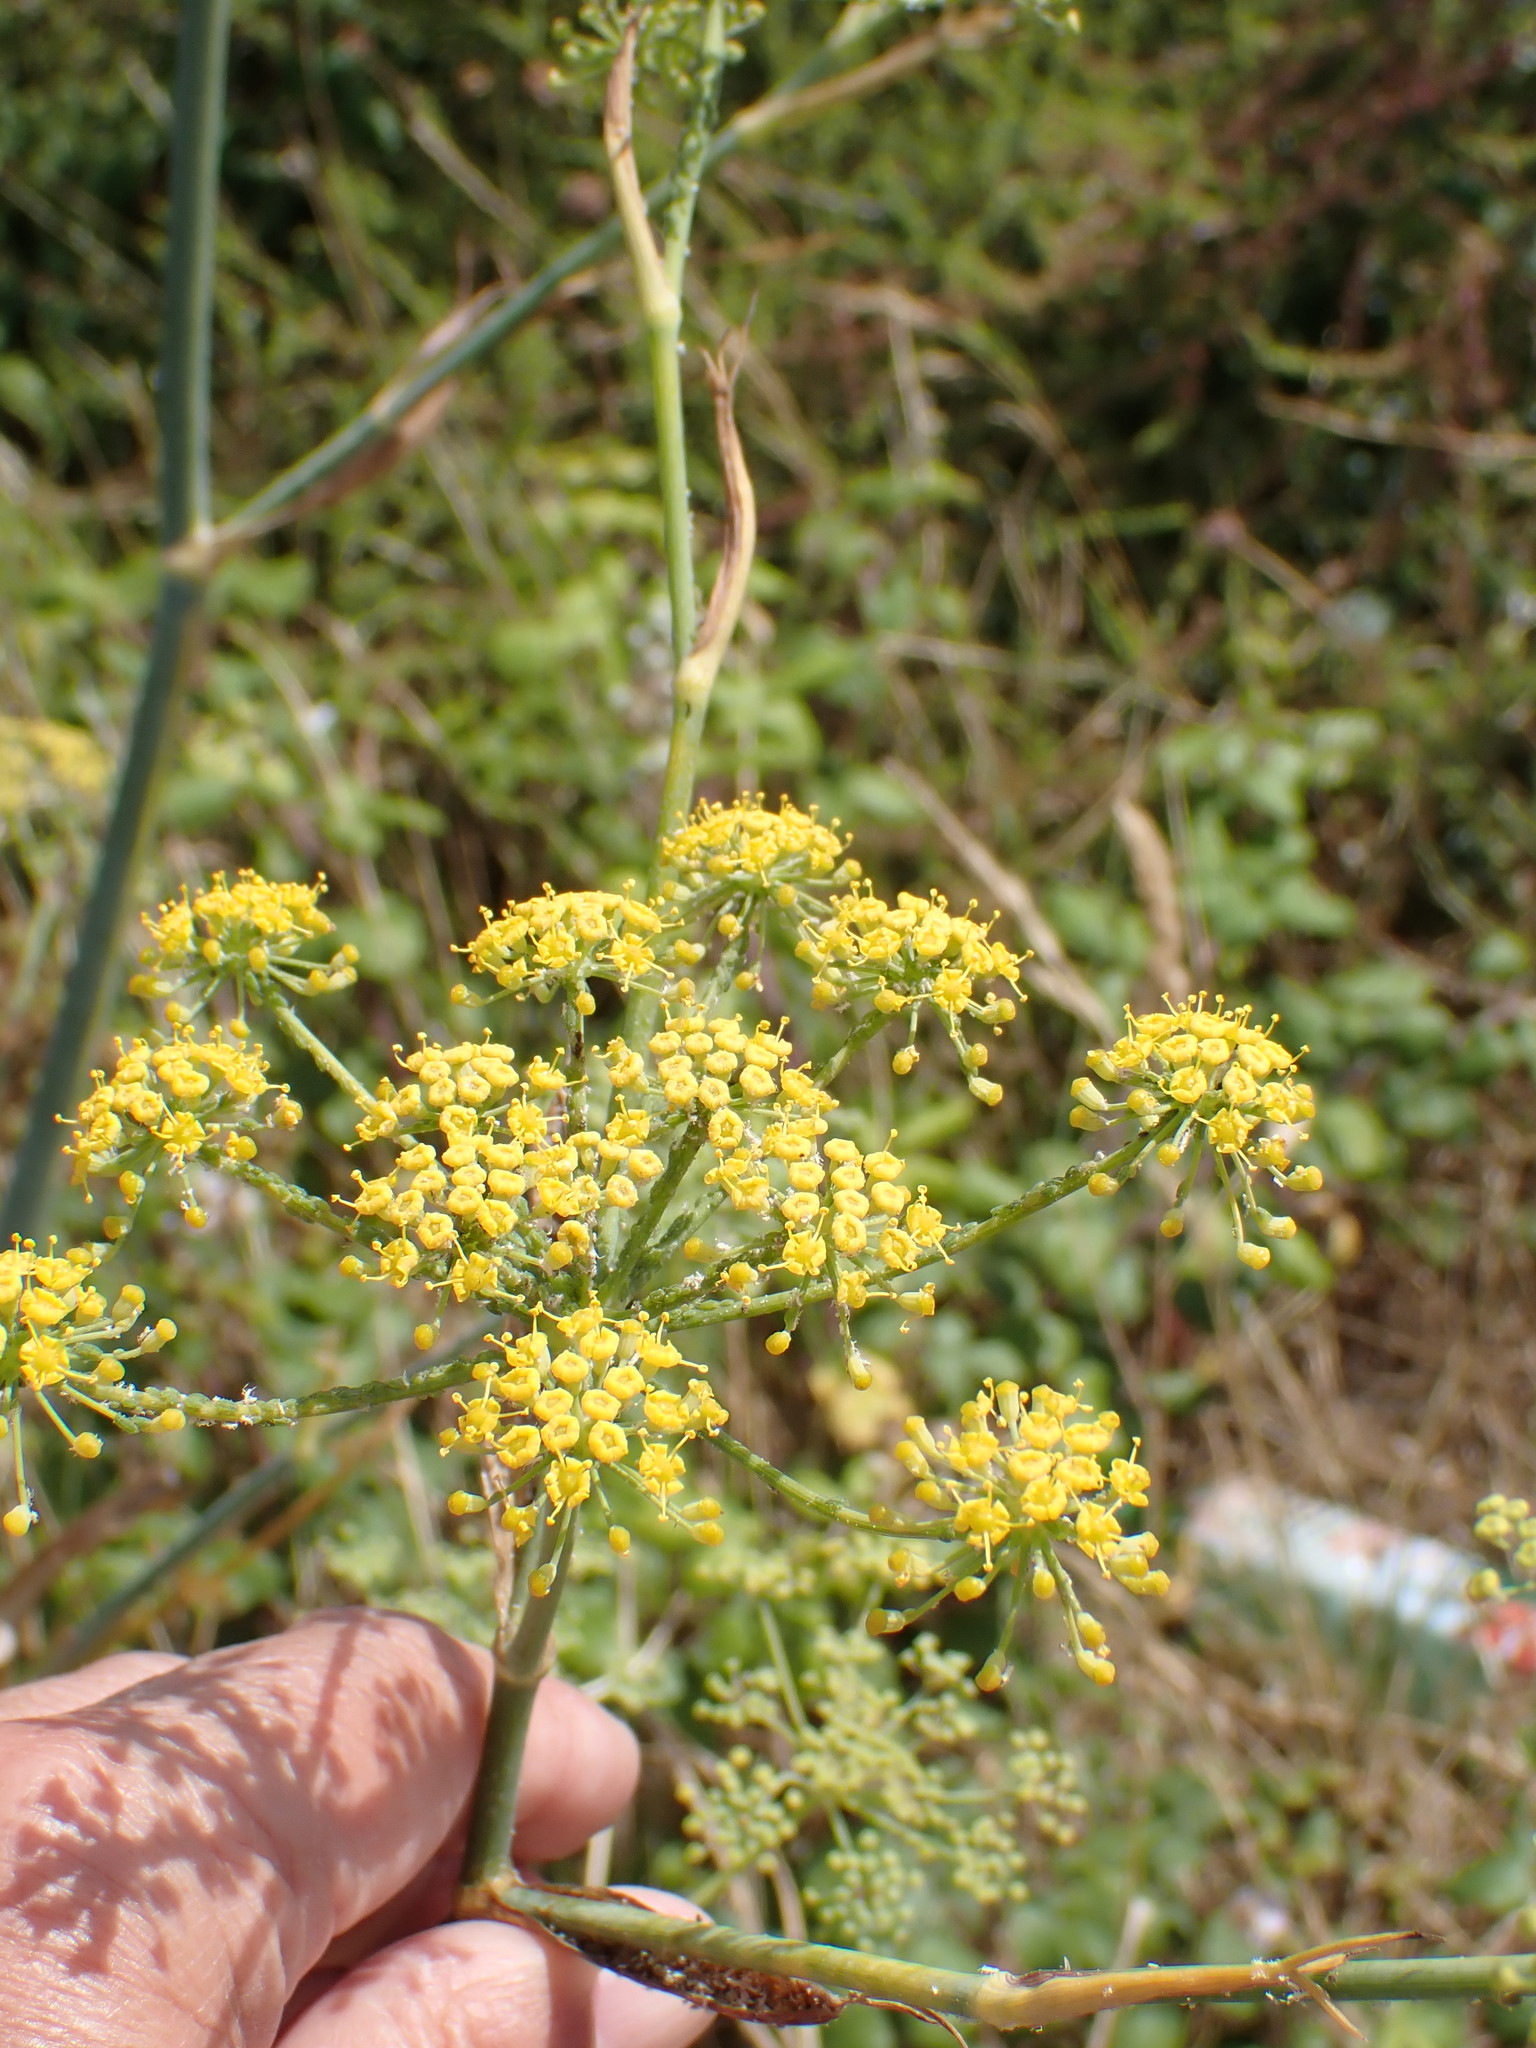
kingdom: Plantae
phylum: Tracheophyta
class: Magnoliopsida
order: Apiales
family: Apiaceae
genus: Foeniculum
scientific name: Foeniculum vulgare
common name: Fennel
